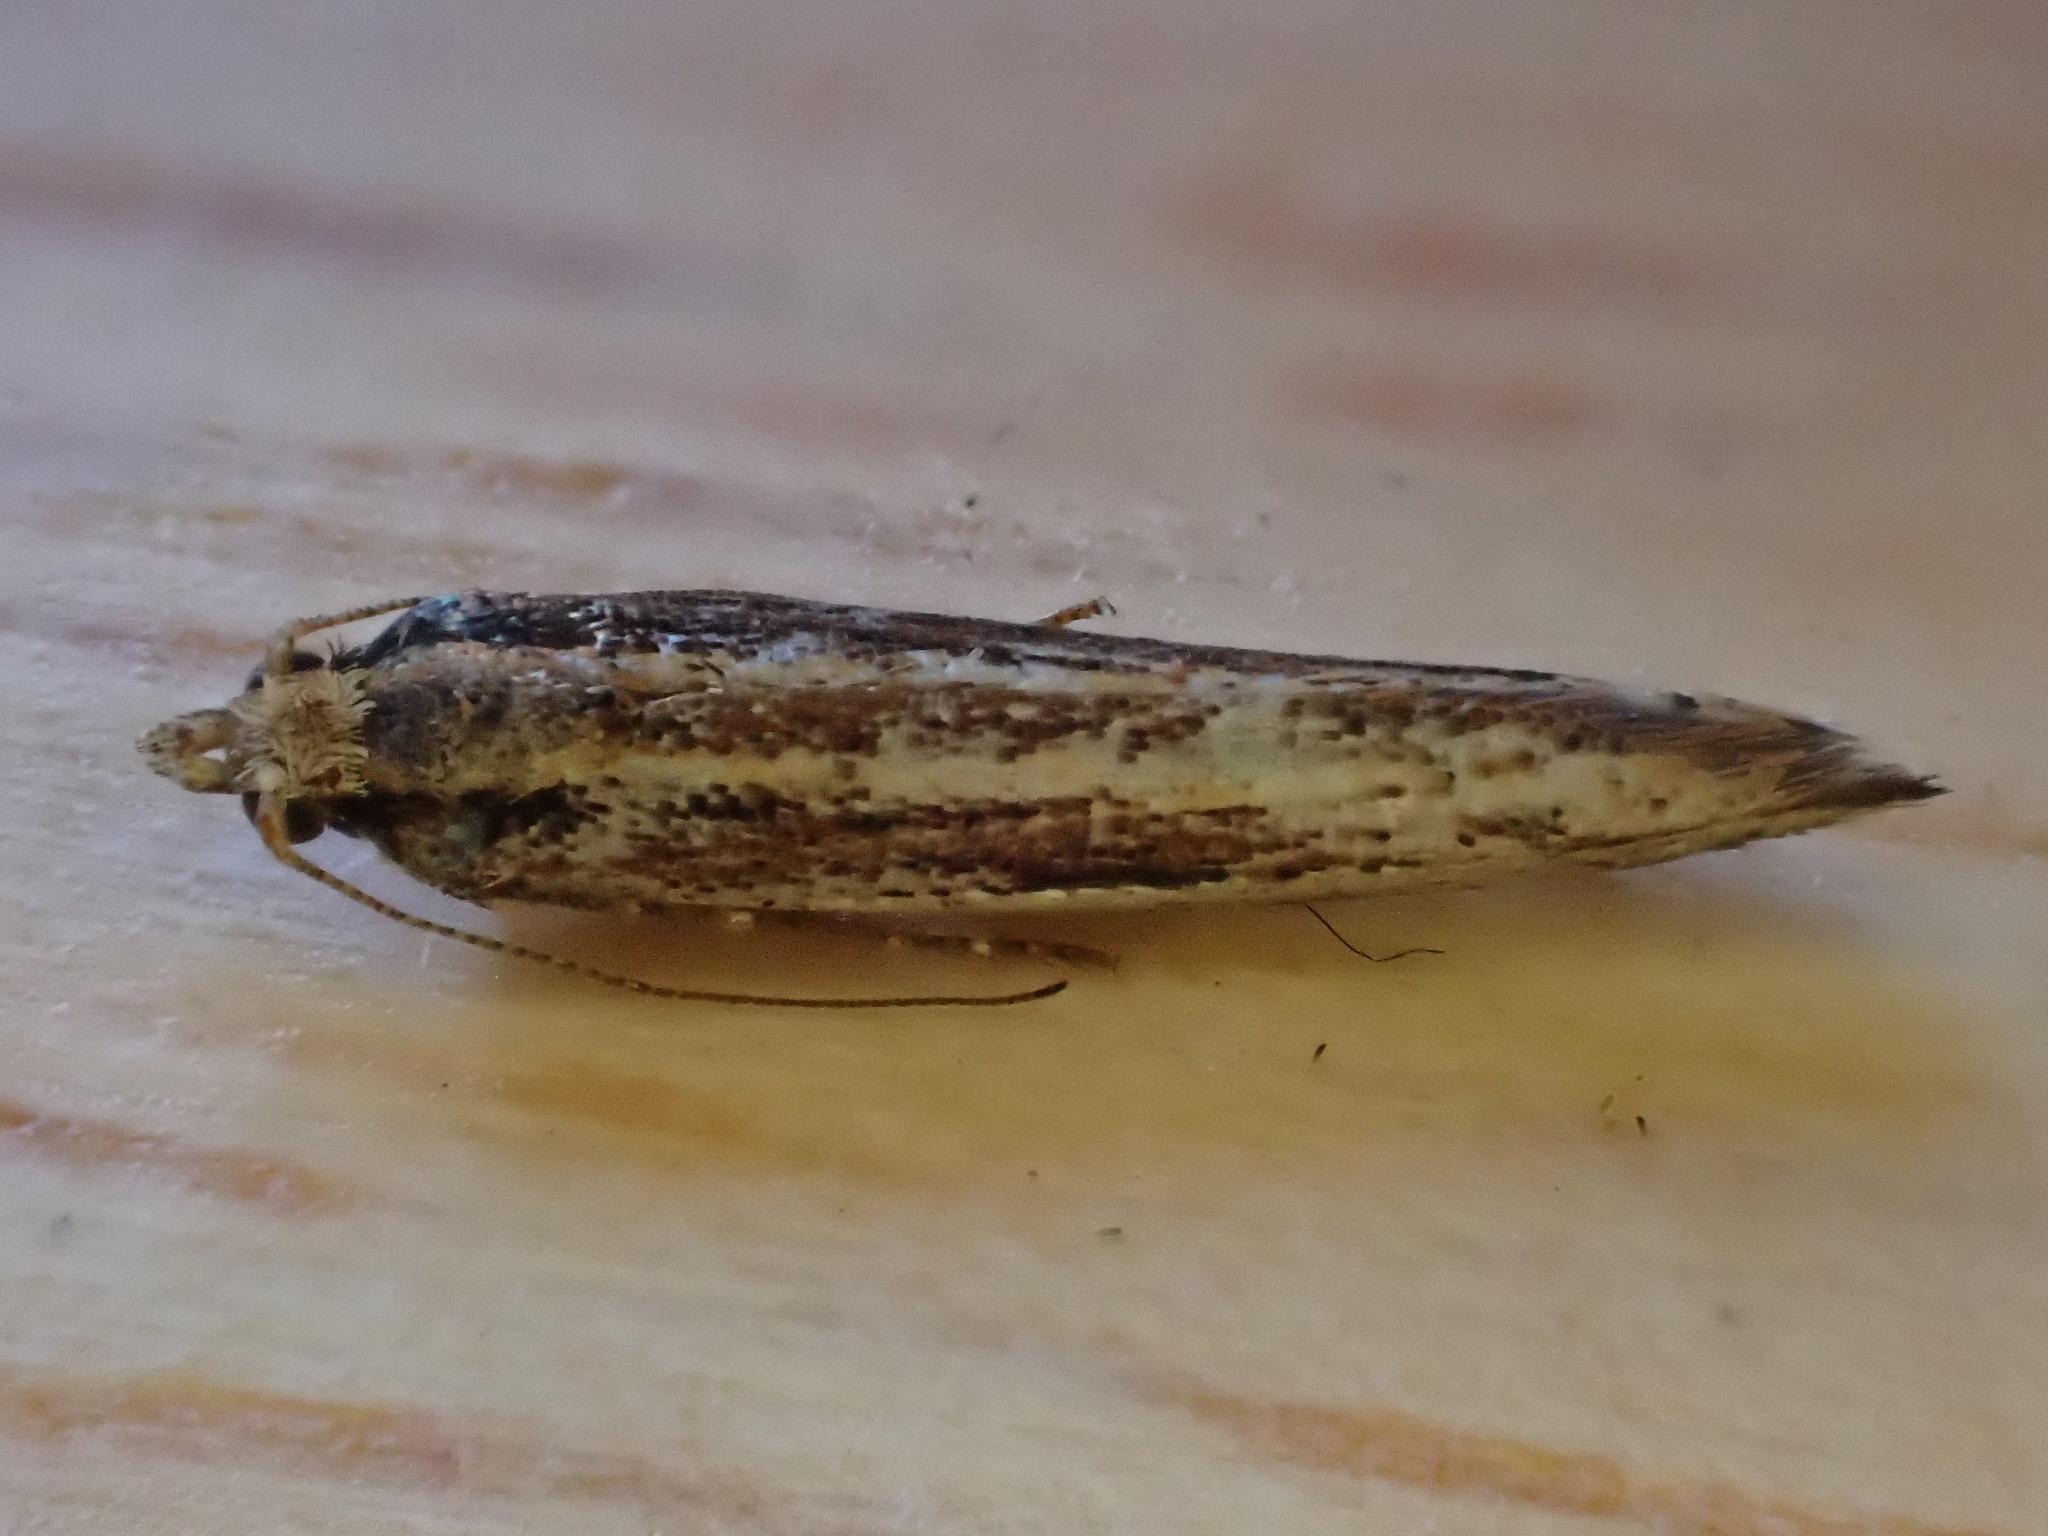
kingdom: Animalia
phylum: Arthropoda
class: Insecta
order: Lepidoptera
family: Plutellidae
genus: Ypsolophus
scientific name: Ypsolophus ustella
